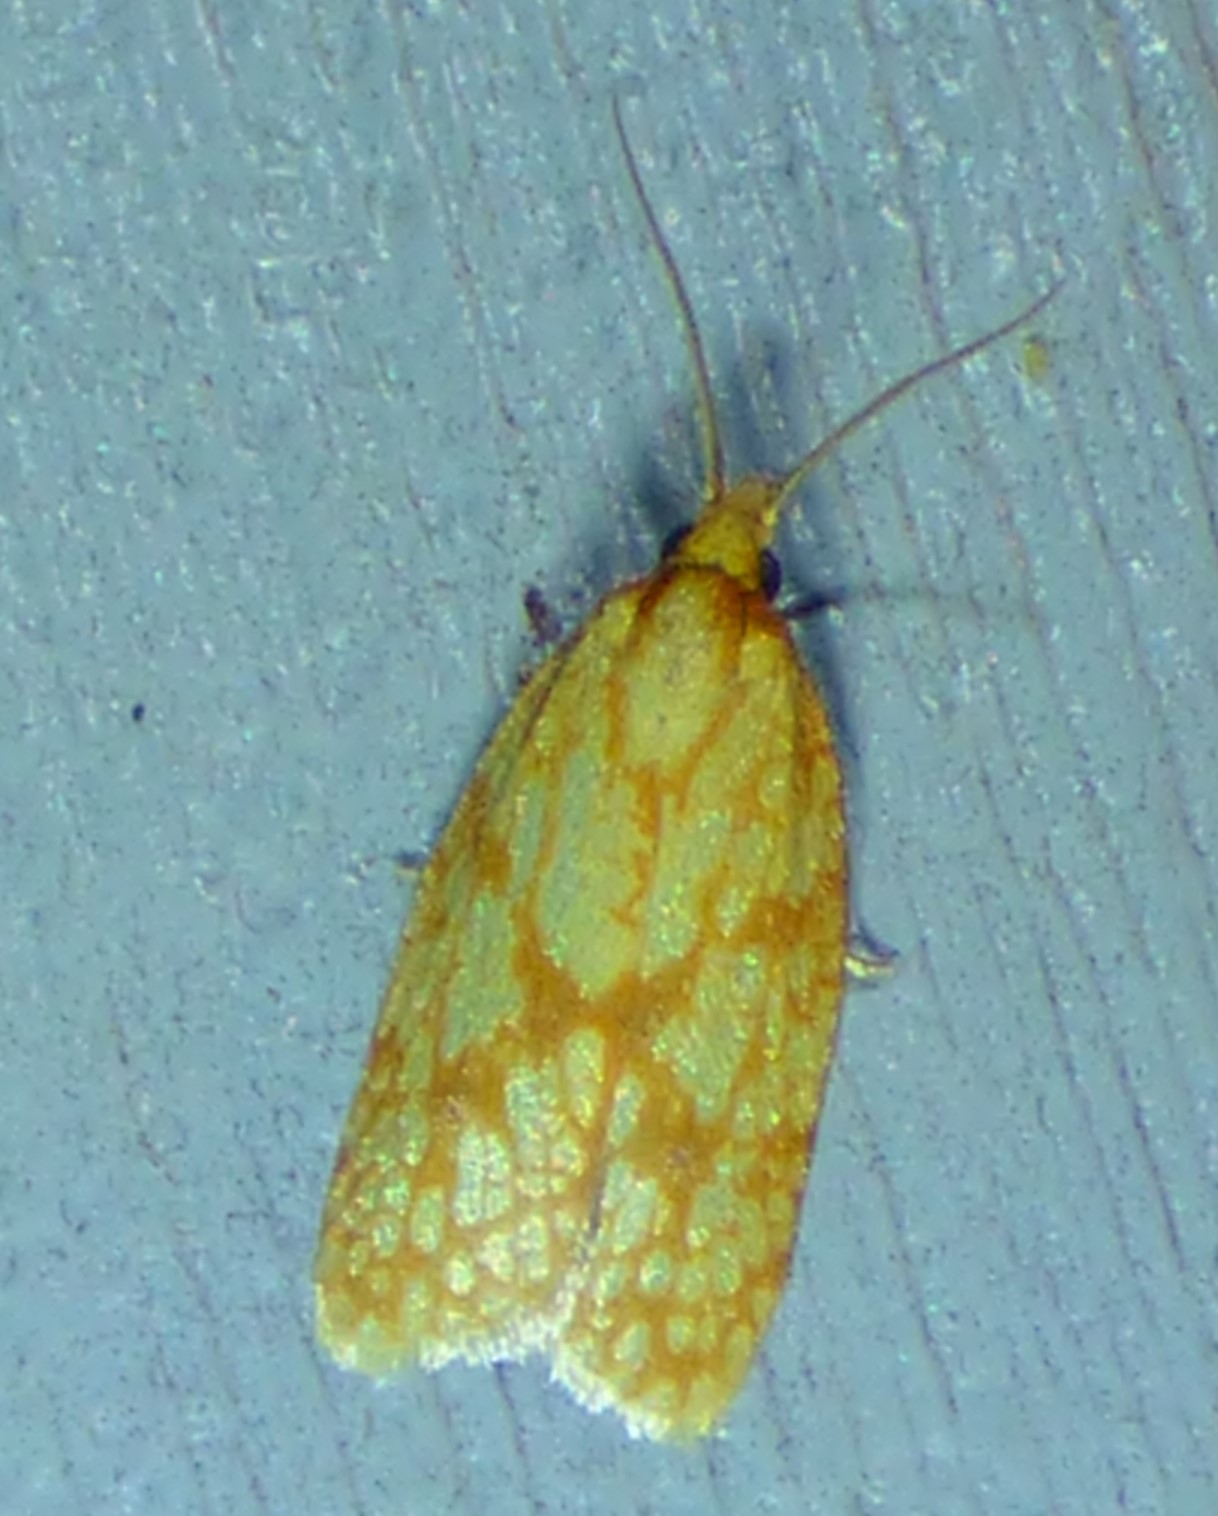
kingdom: Animalia
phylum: Arthropoda
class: Insecta
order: Lepidoptera
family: Tortricidae
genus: Sparganothis
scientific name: Sparganothis sulfureana
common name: Sparganothis fruitworm moth
